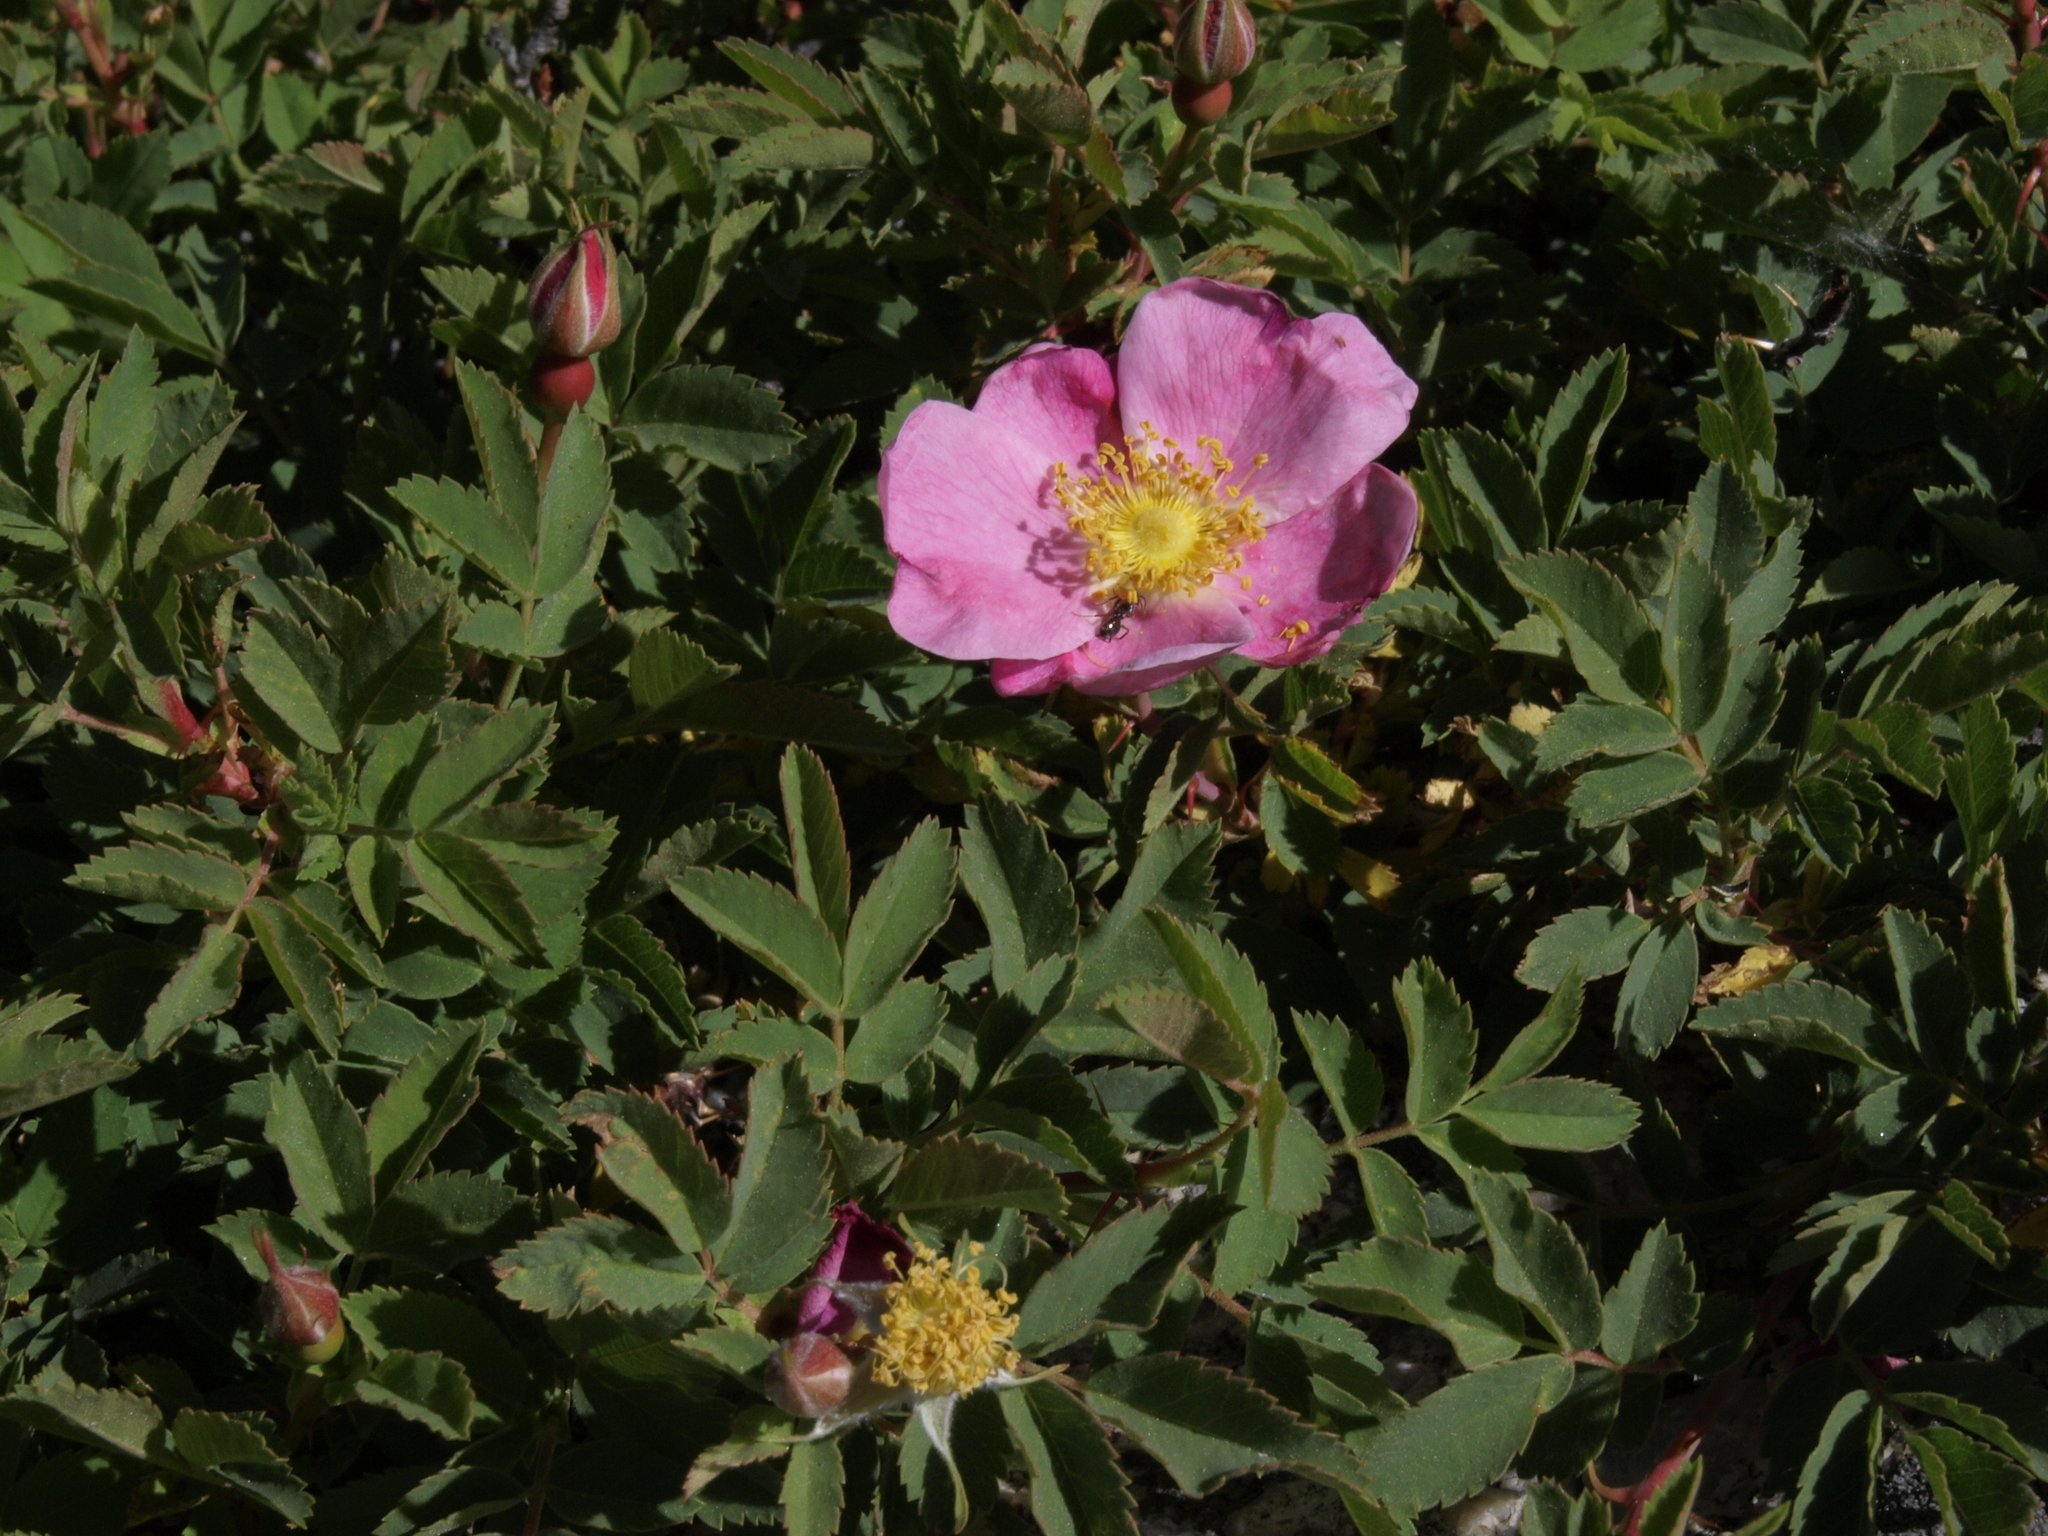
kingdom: Plantae
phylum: Tracheophyta
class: Magnoliopsida
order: Rosales
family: Rosaceae
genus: Rosa
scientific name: Rosa woodsii
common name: Woods's rose
